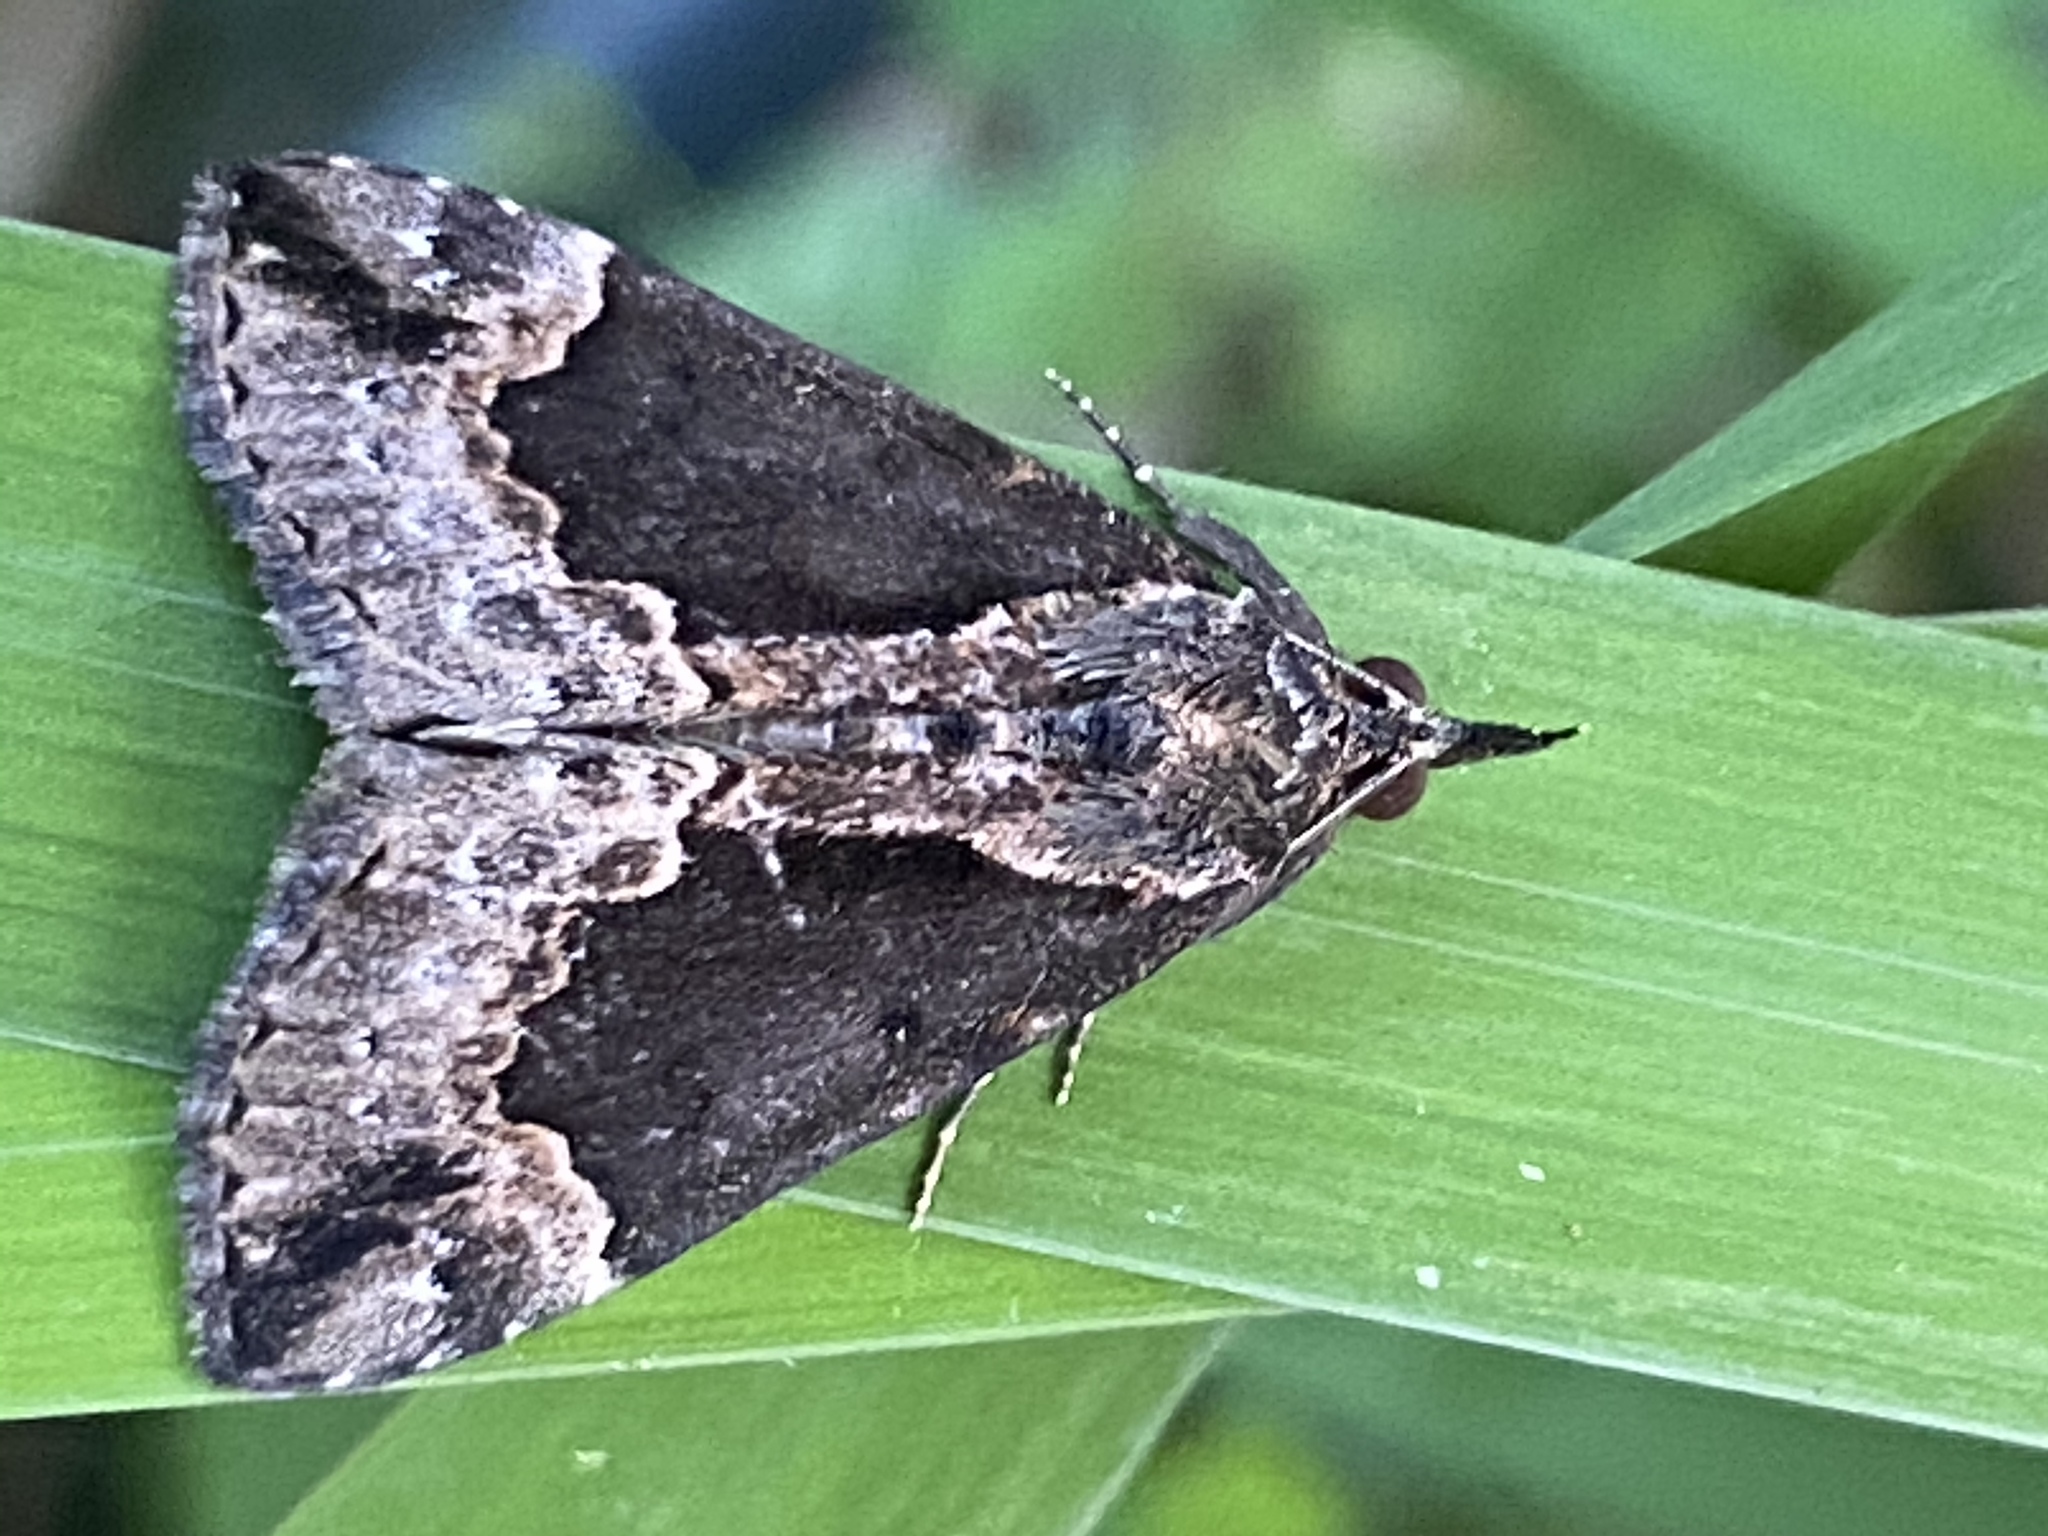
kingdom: Animalia
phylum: Arthropoda
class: Insecta
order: Lepidoptera
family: Erebidae
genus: Hypena
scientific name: Hypena baltimoralis
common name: Baltimore snout
